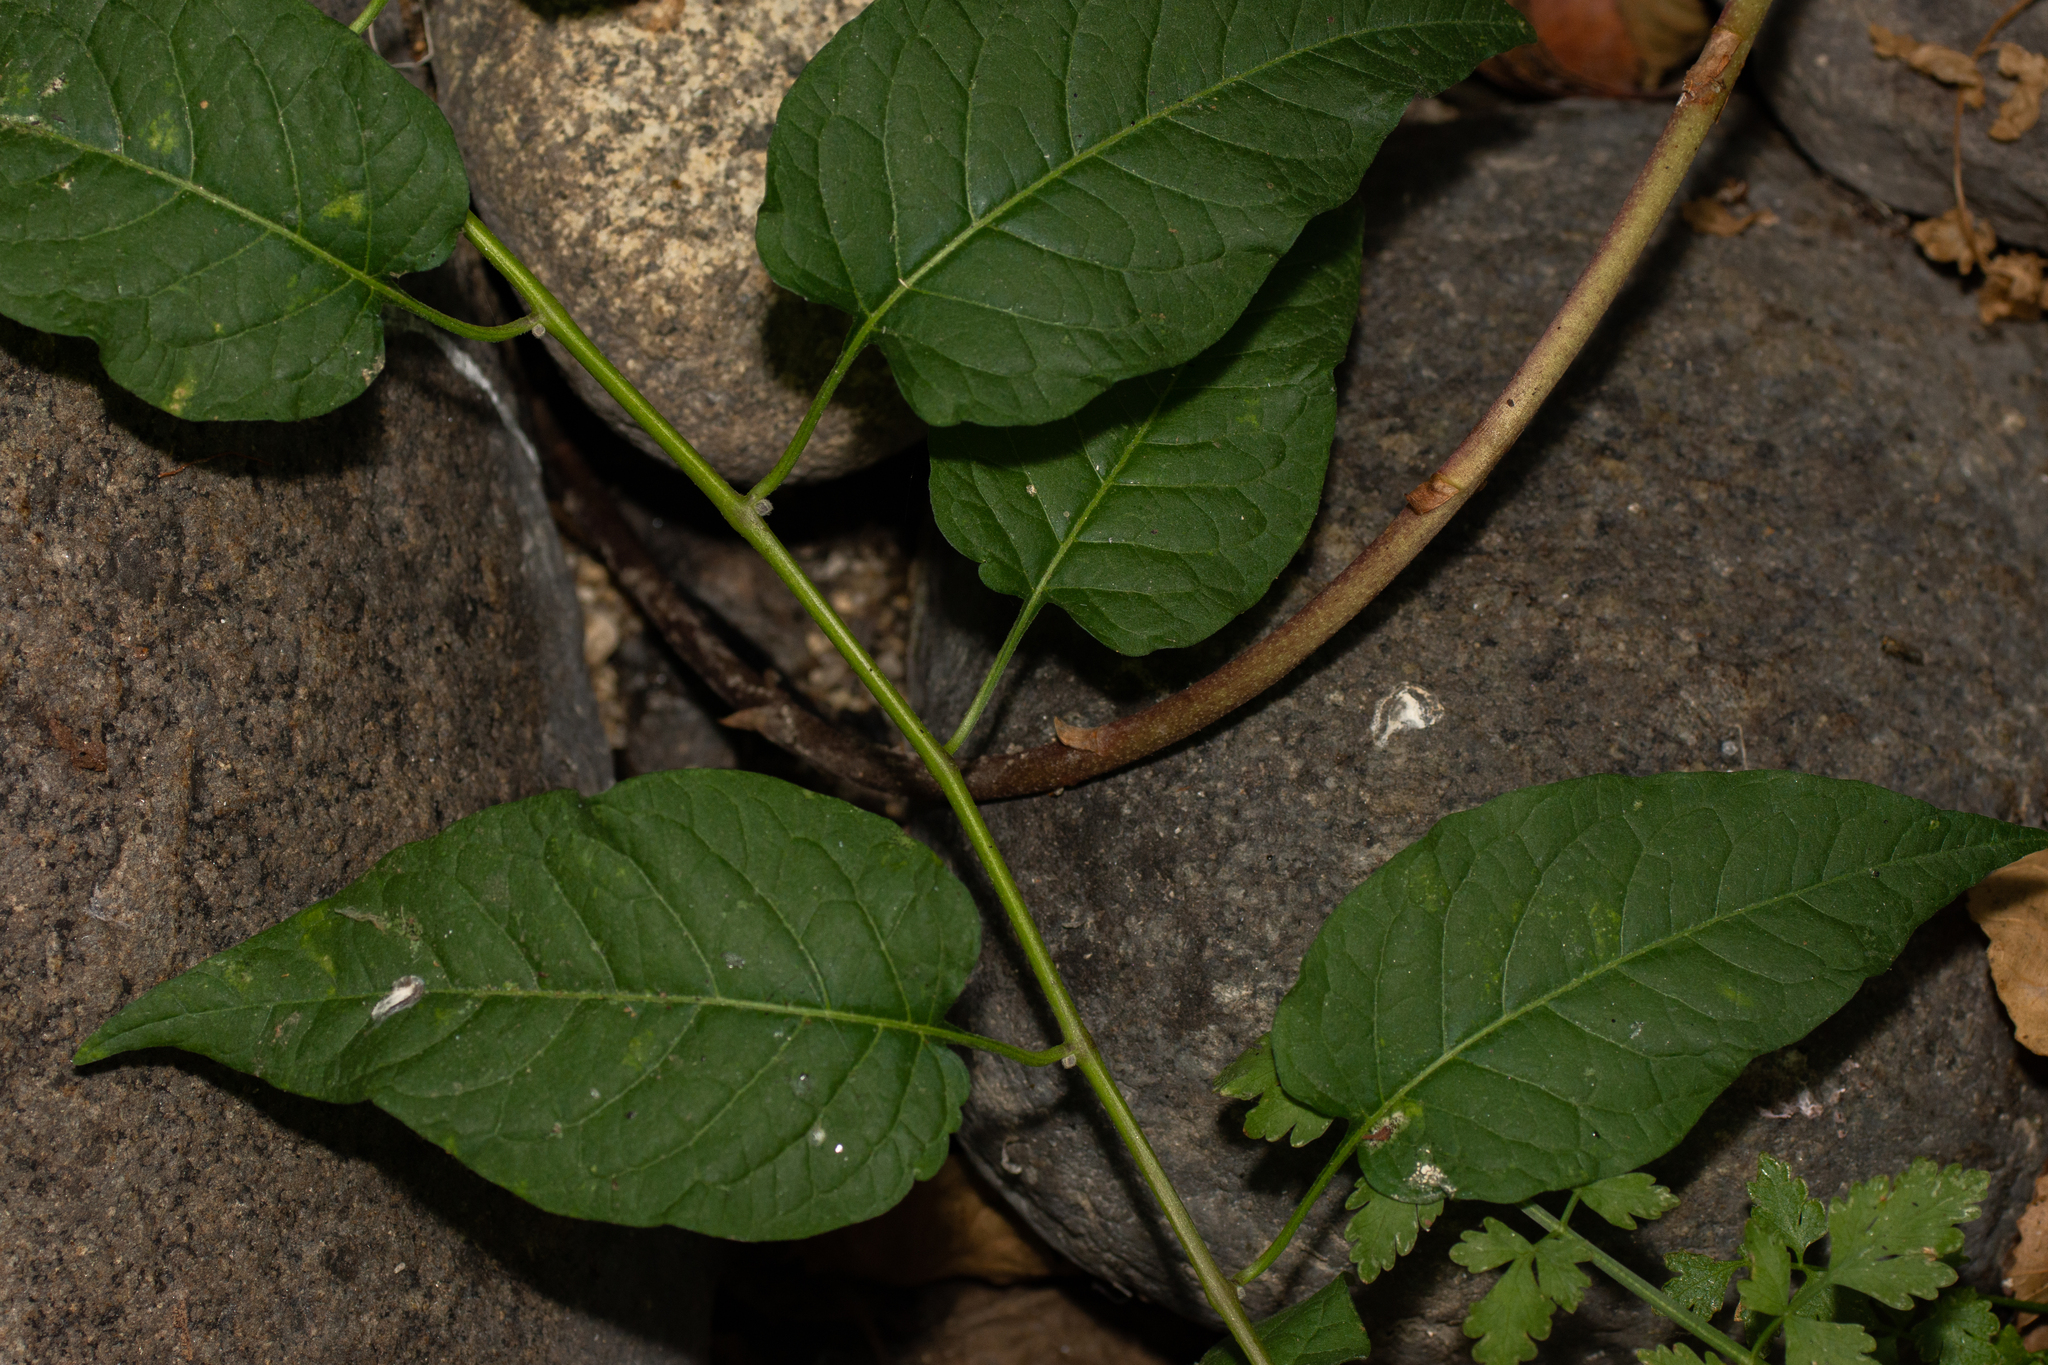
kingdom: Plantae
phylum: Tracheophyta
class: Magnoliopsida
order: Solanales
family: Solanaceae
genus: Solanum
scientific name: Solanum dulcamara
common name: Climbing nightshade
